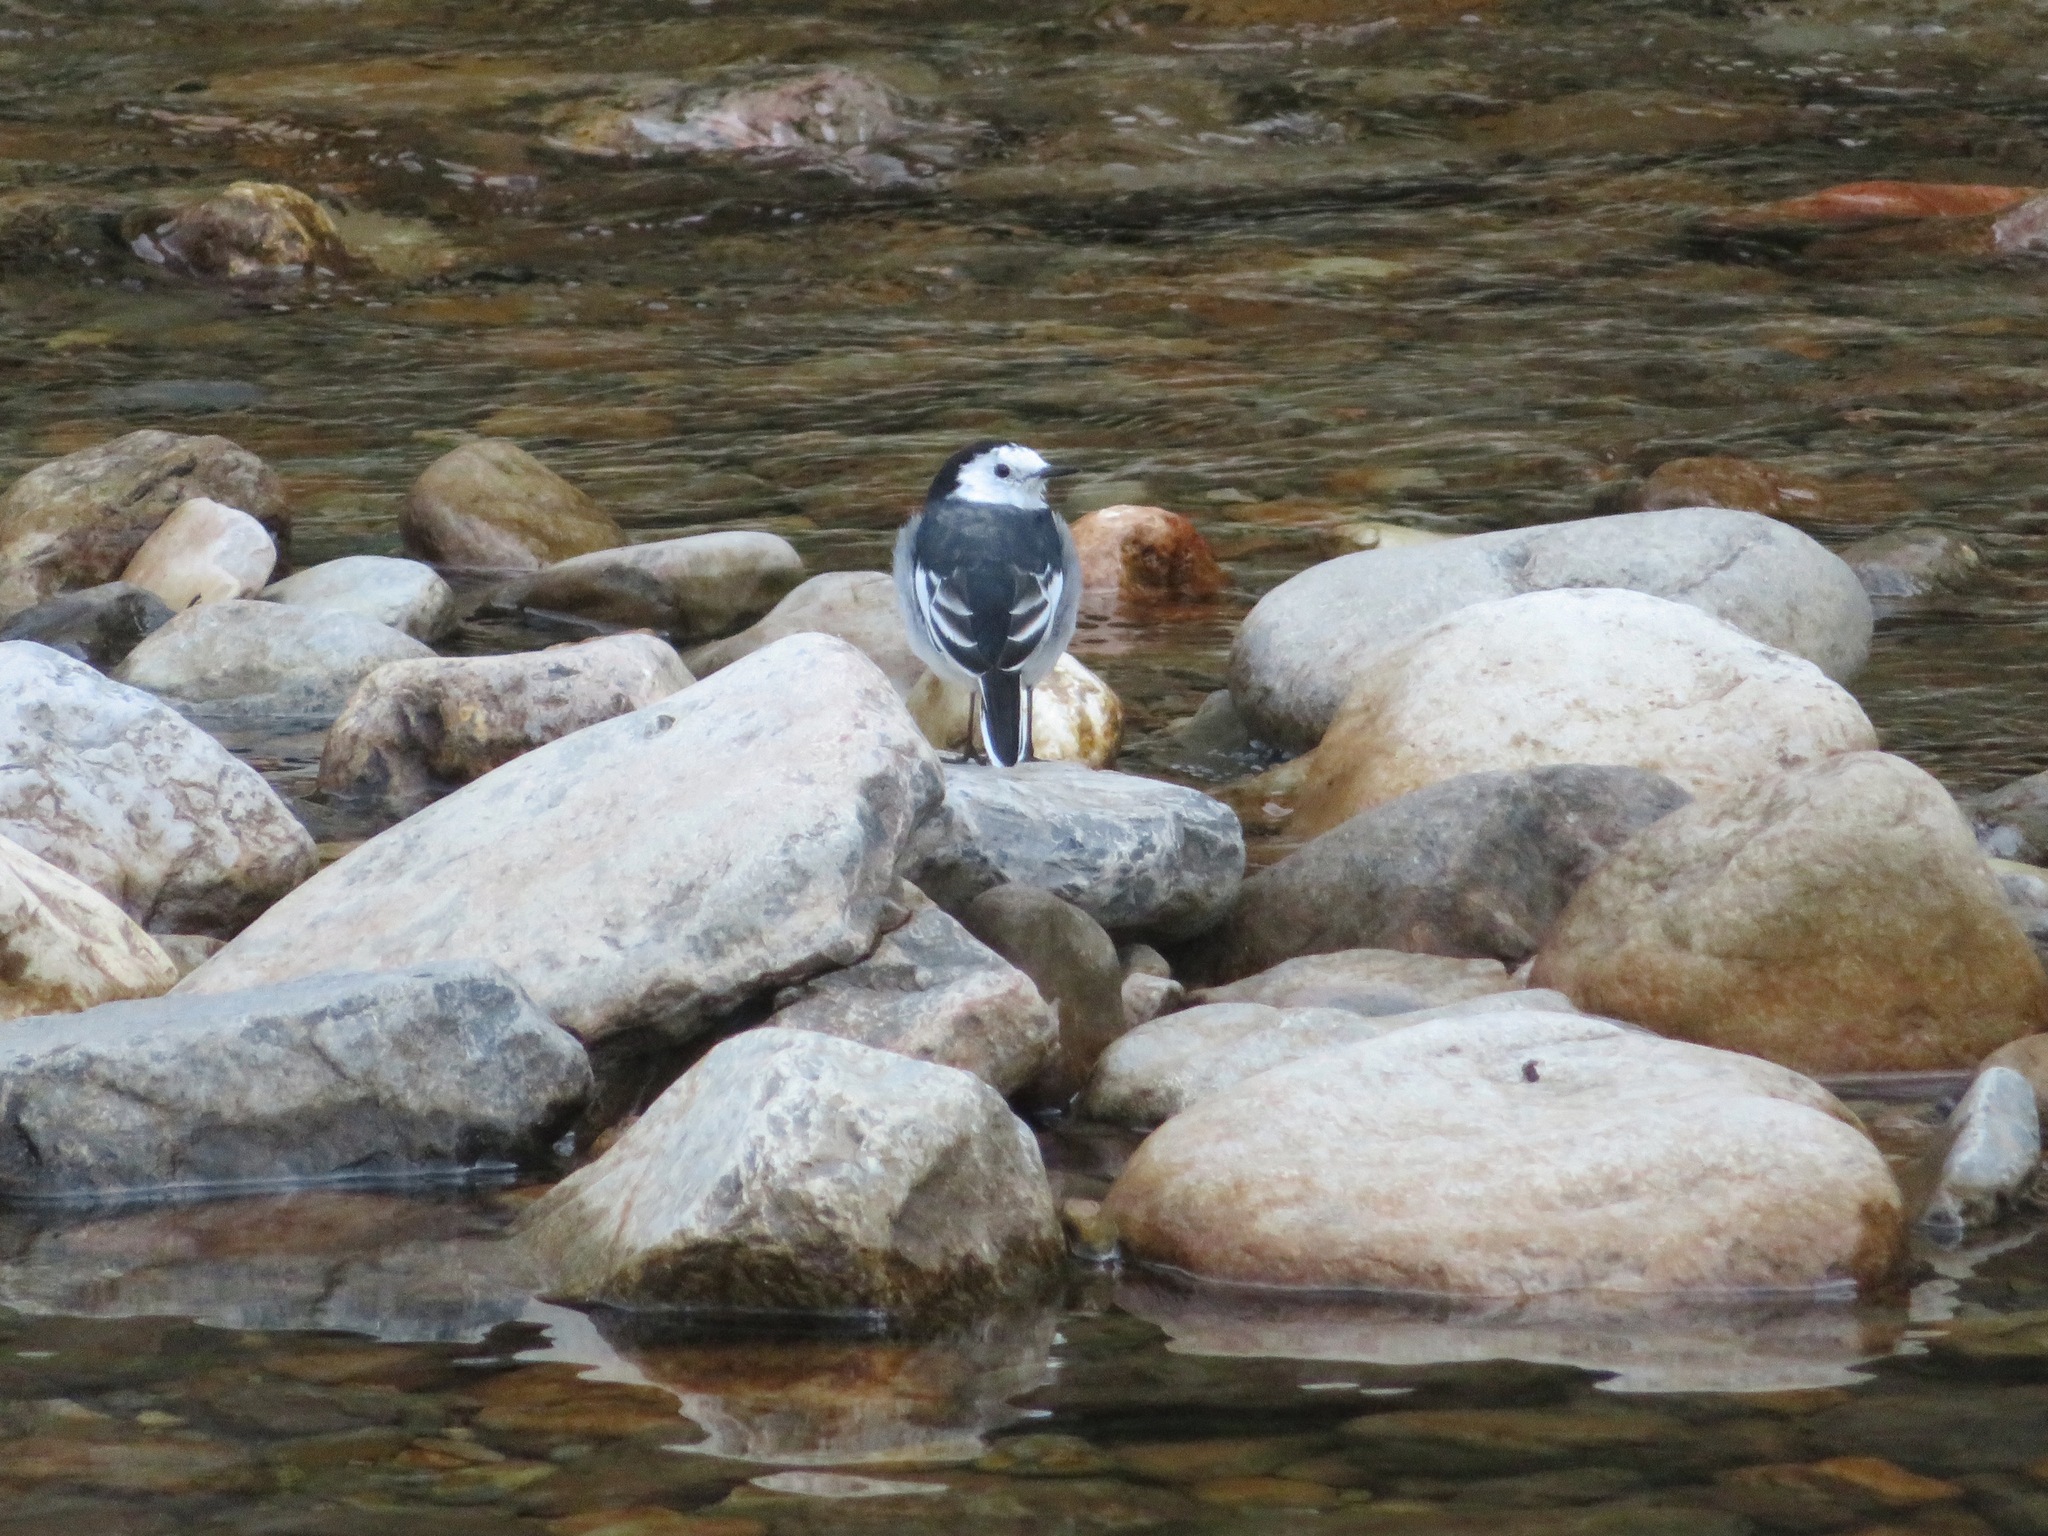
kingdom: Animalia
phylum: Chordata
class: Aves
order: Passeriformes
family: Motacillidae
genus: Motacilla
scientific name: Motacilla alba
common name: White wagtail
